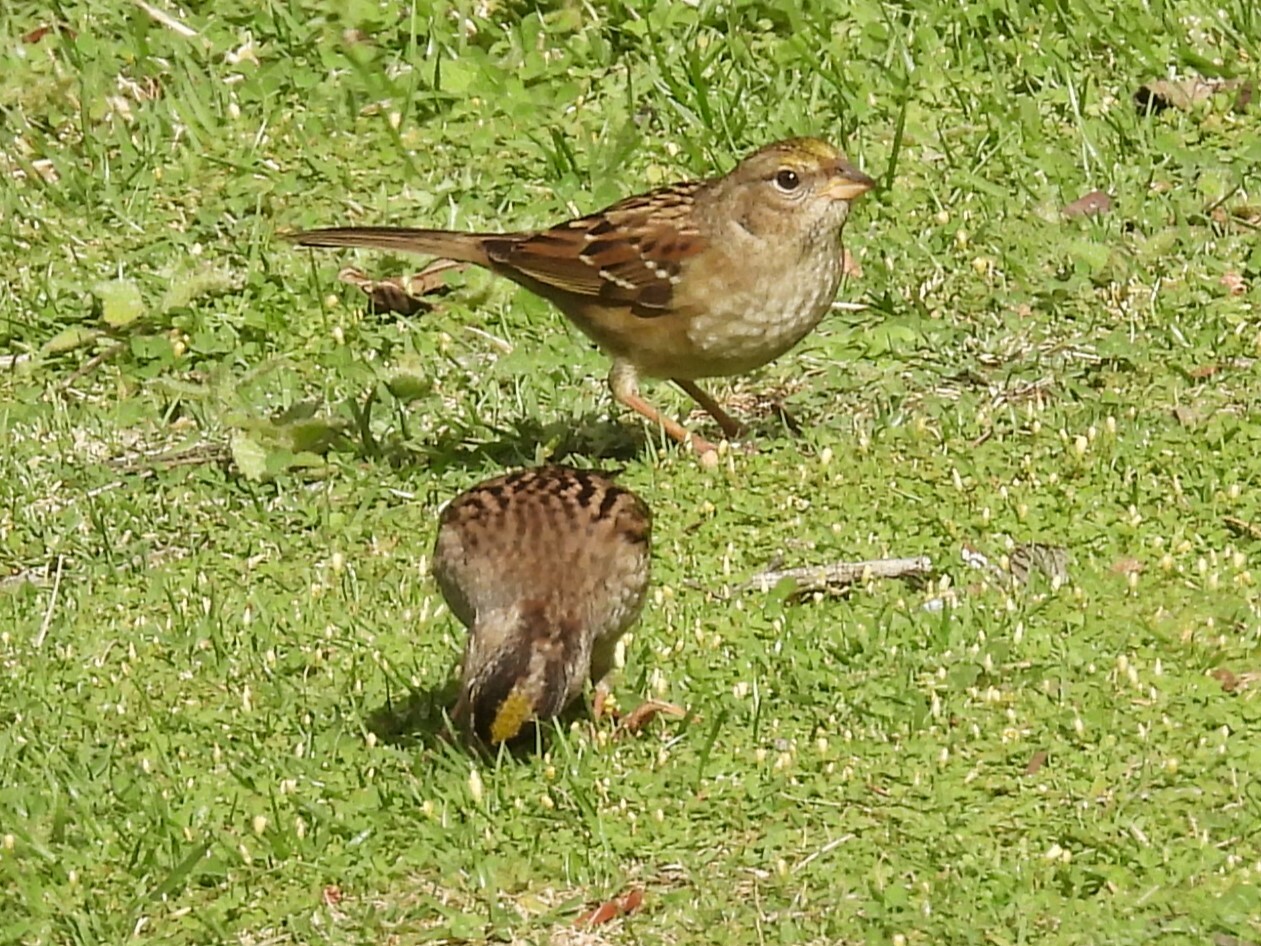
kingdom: Animalia
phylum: Chordata
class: Aves
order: Passeriformes
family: Passerellidae
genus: Zonotrichia
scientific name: Zonotrichia atricapilla
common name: Golden-crowned sparrow
